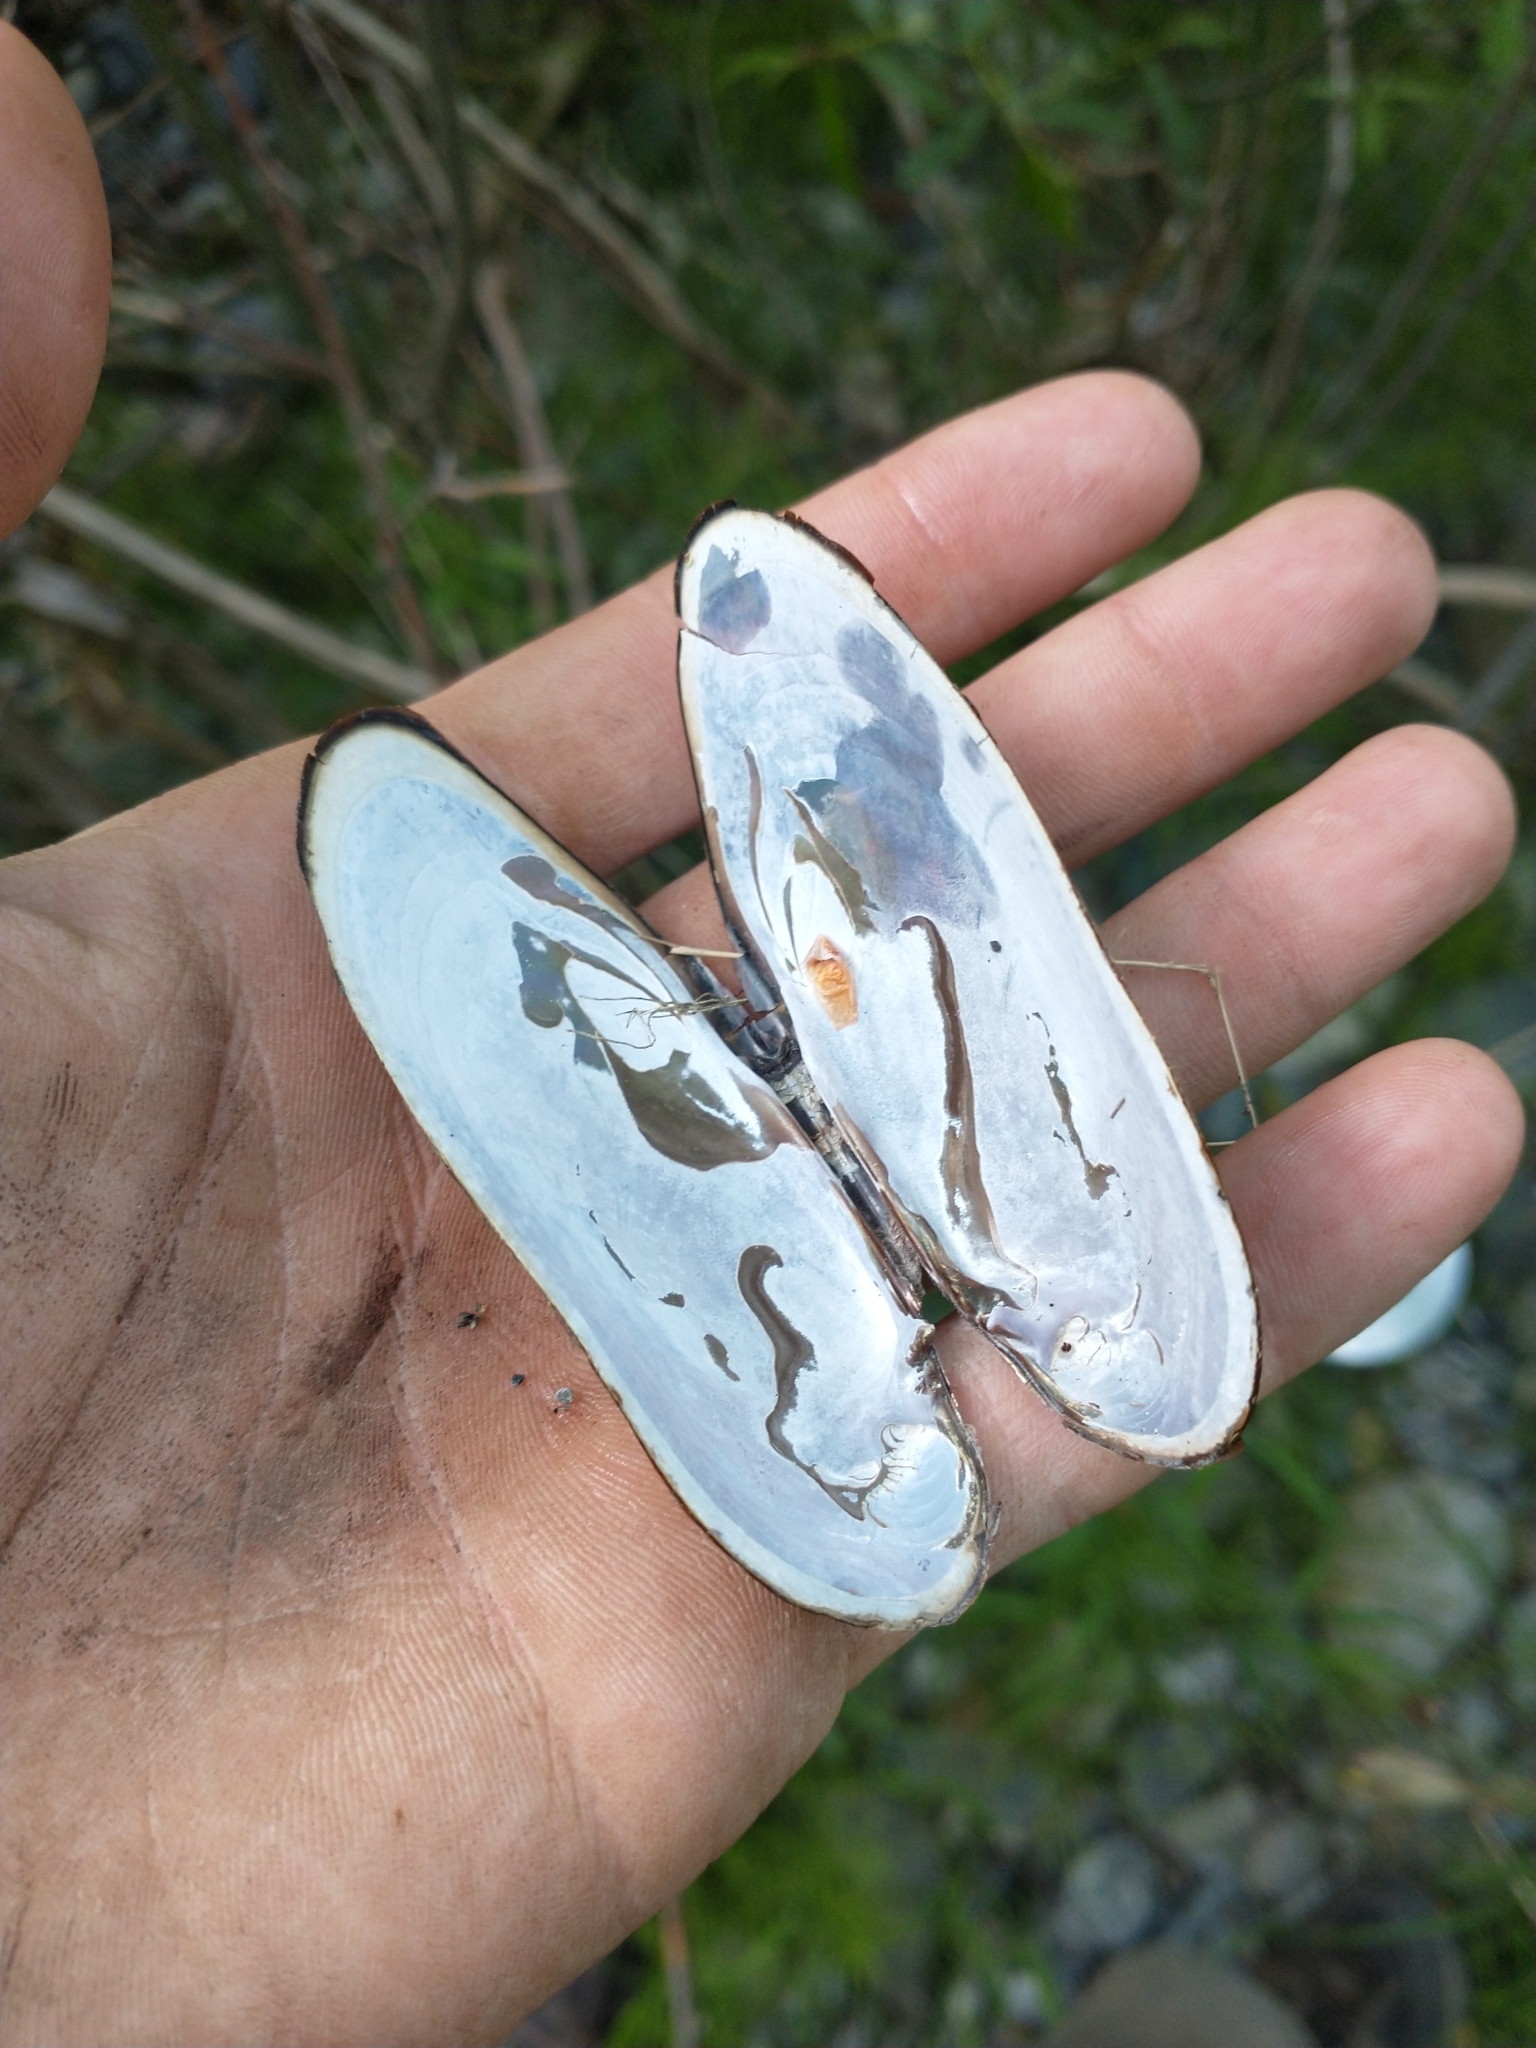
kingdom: Animalia
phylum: Mollusca
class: Bivalvia
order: Unionida
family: Margaritiferidae
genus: Margaritifera
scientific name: Margaritifera falcata
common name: Western pearlshell
